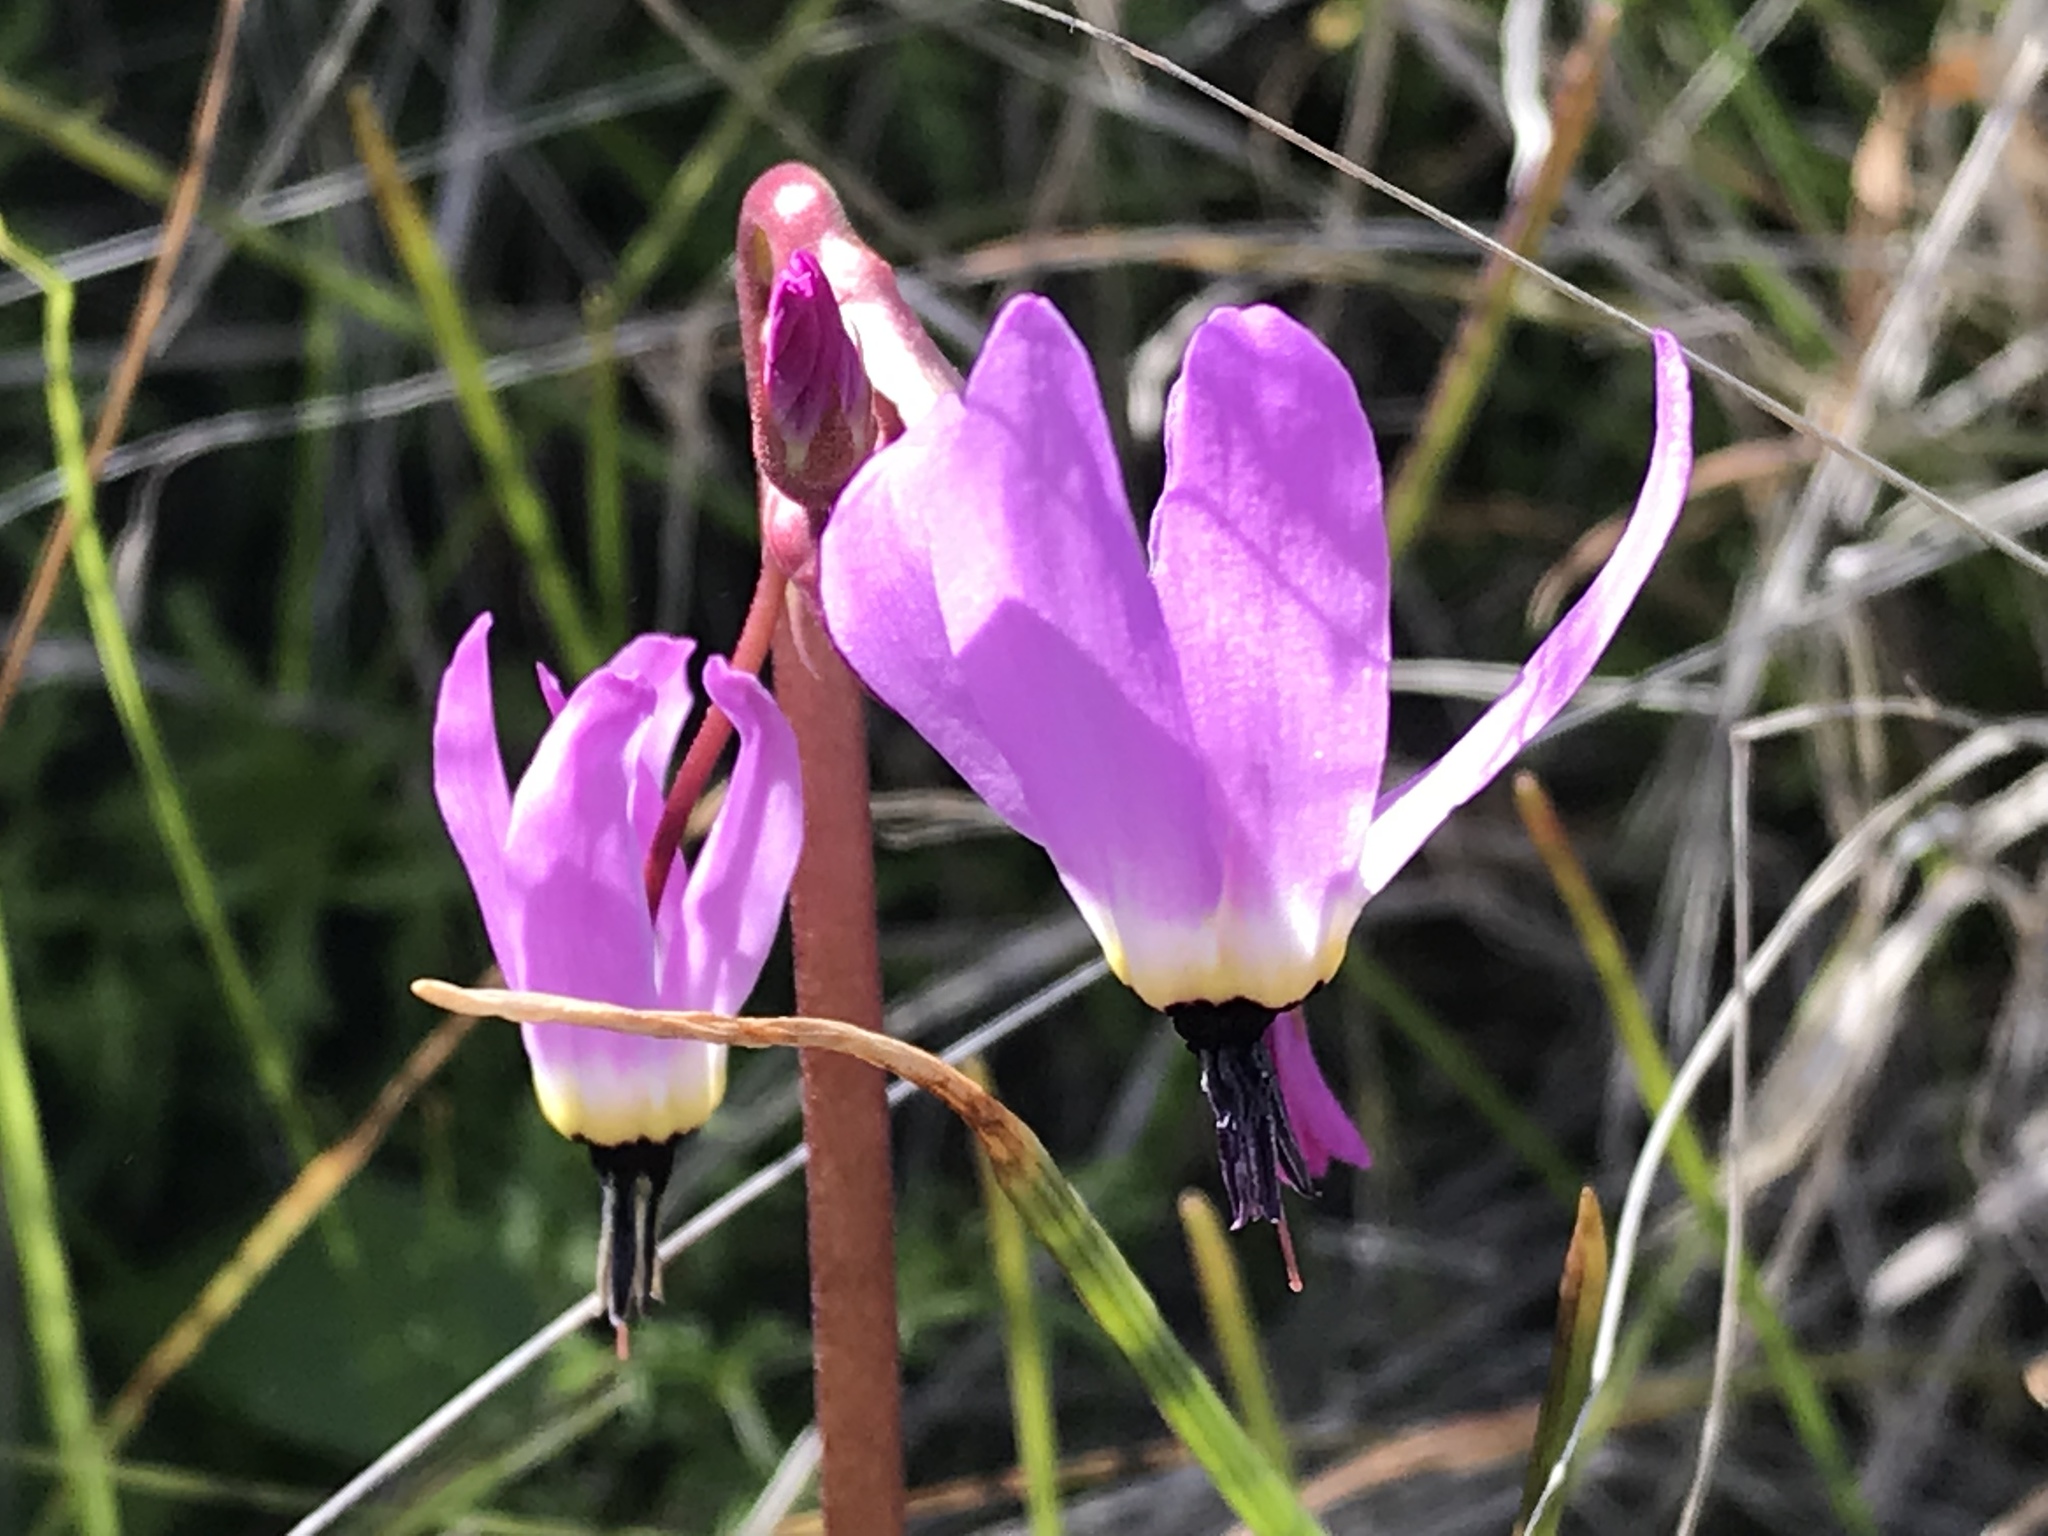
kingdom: Plantae
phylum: Tracheophyta
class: Magnoliopsida
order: Ericales
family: Primulaceae
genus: Dodecatheon
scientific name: Dodecatheon hendersonii
